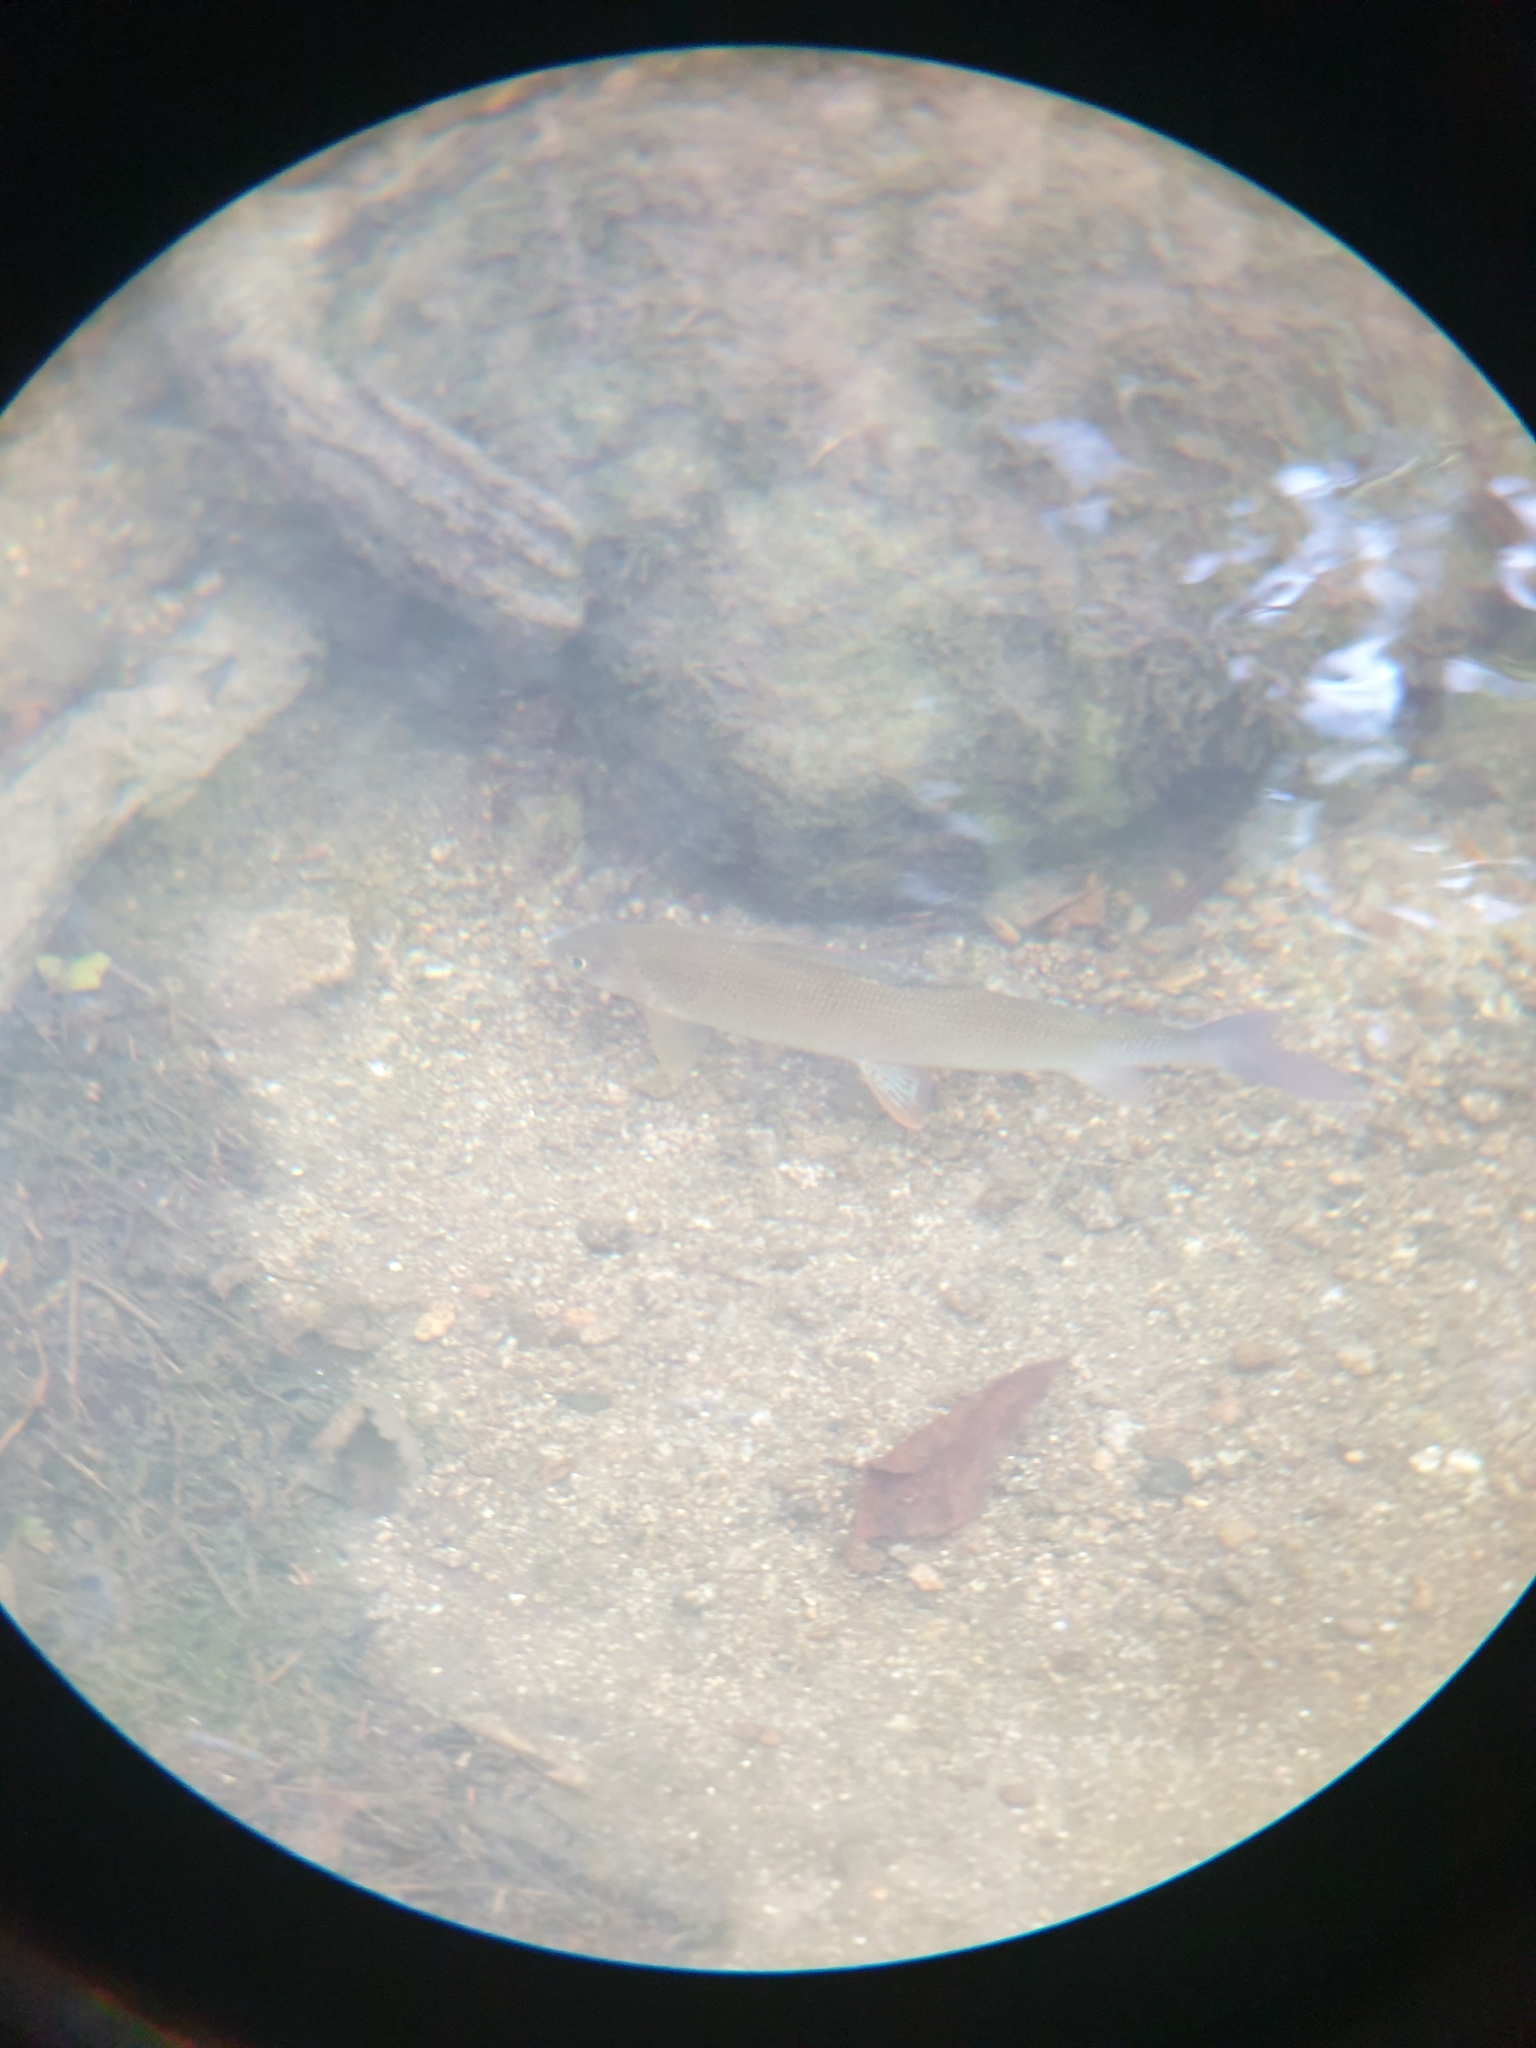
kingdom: Animalia
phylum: Chordata
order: Salmoniformes
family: Salmonidae
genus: Thymallus
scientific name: Thymallus thymallus
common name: Grayling
